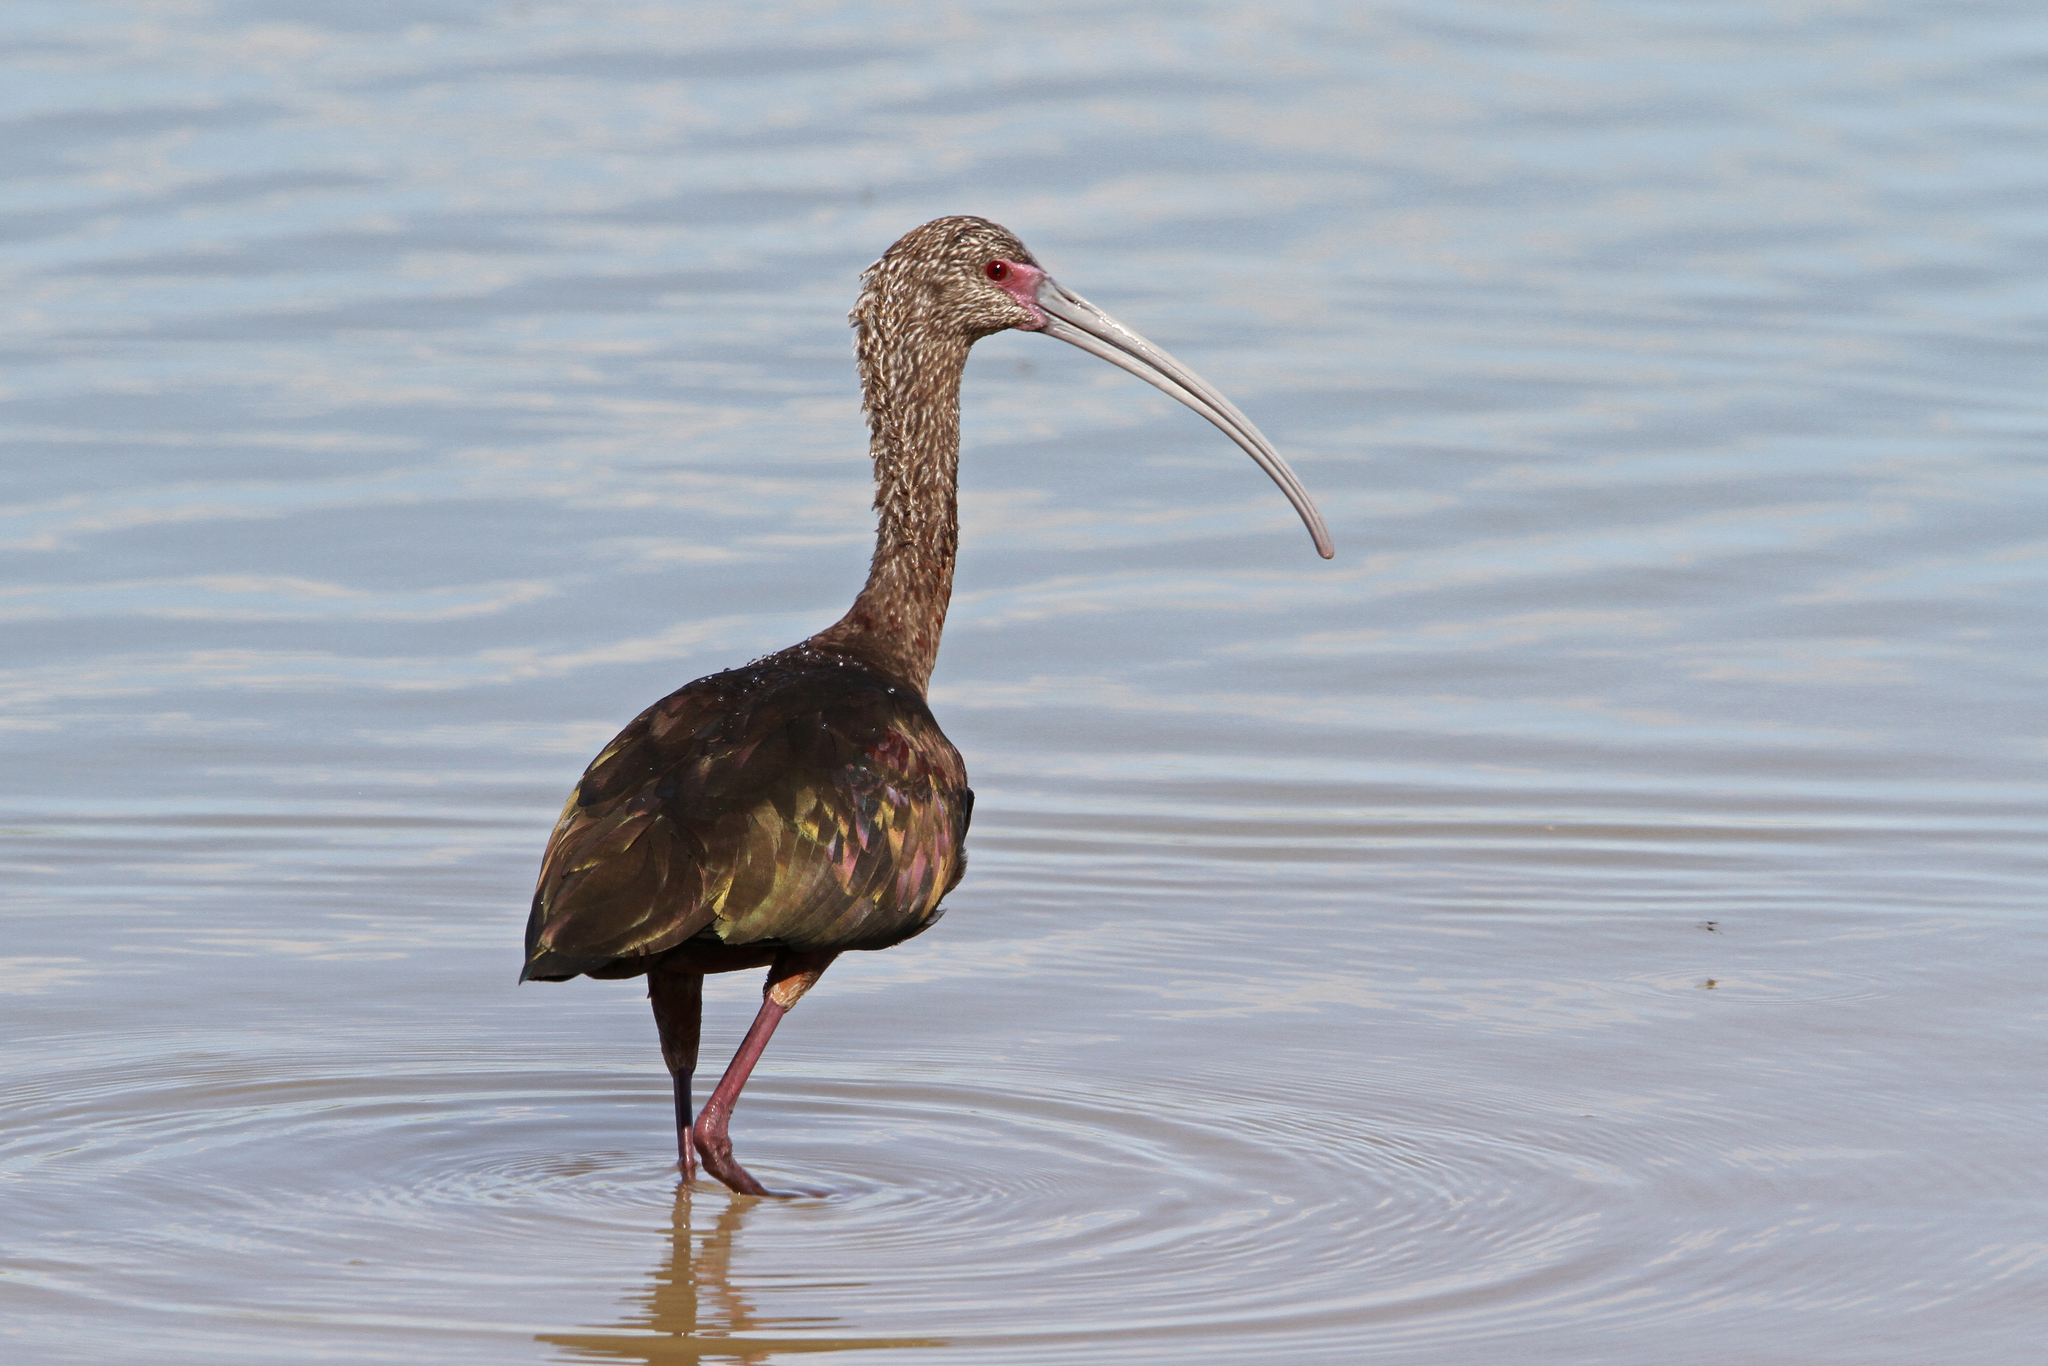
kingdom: Animalia
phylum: Chordata
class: Aves
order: Pelecaniformes
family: Threskiornithidae
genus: Plegadis
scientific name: Plegadis chihi
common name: White-faced ibis
